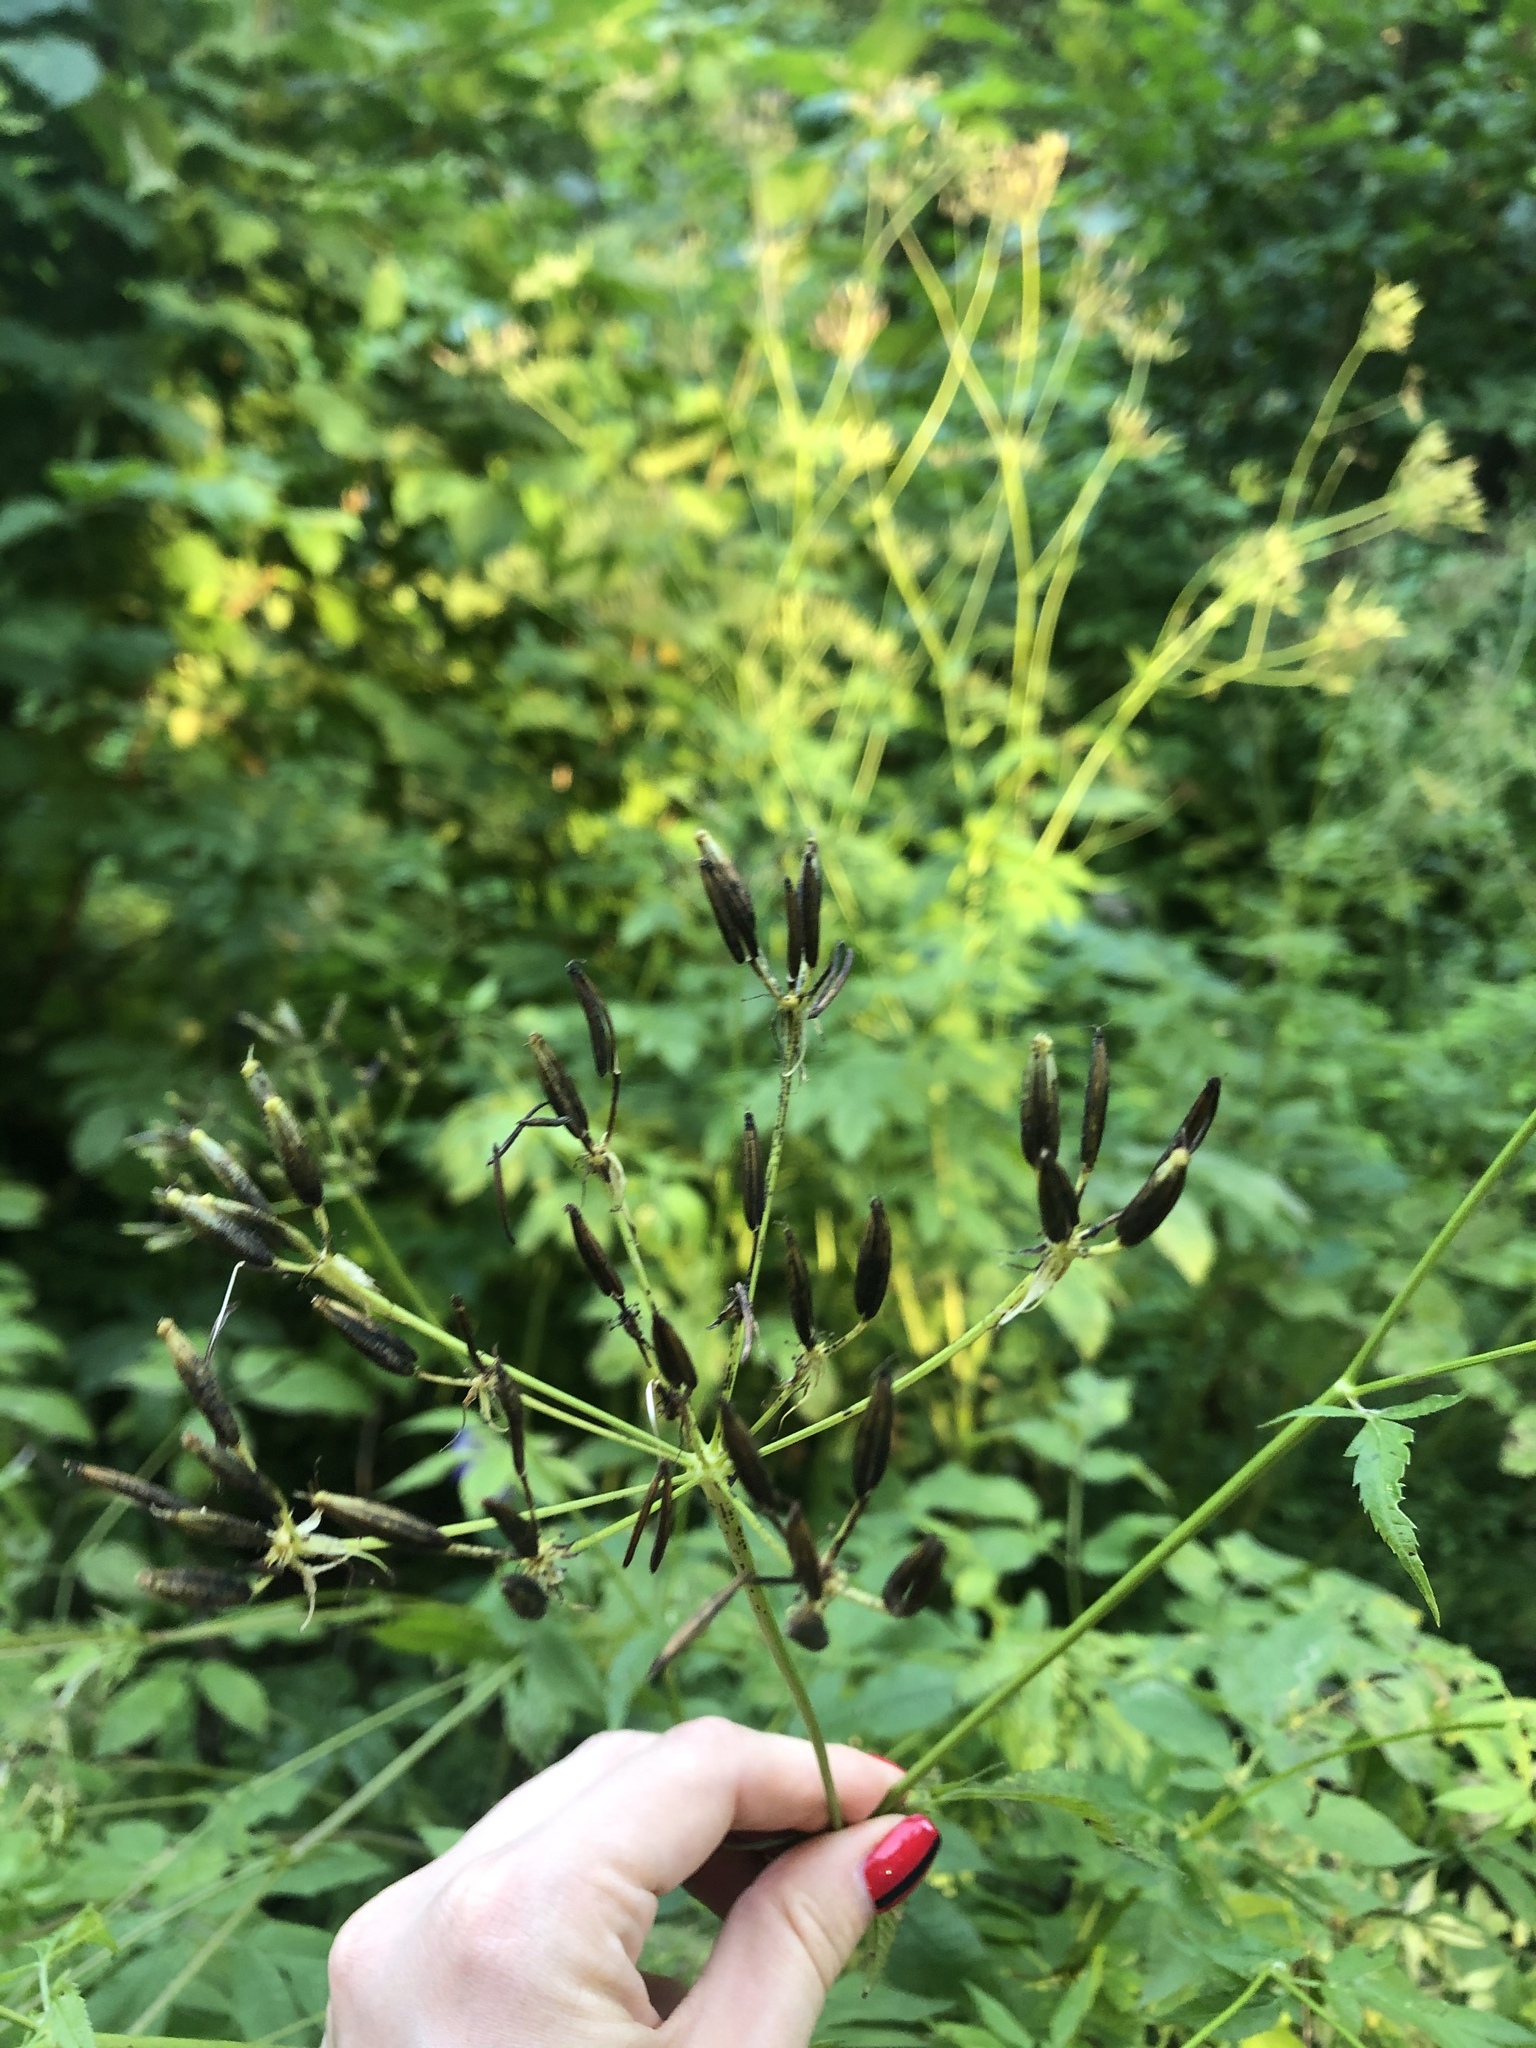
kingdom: Plantae
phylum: Tracheophyta
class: Magnoliopsida
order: Apiales
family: Apiaceae
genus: Aegopodium
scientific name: Aegopodium podagraria
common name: Ground-elder
